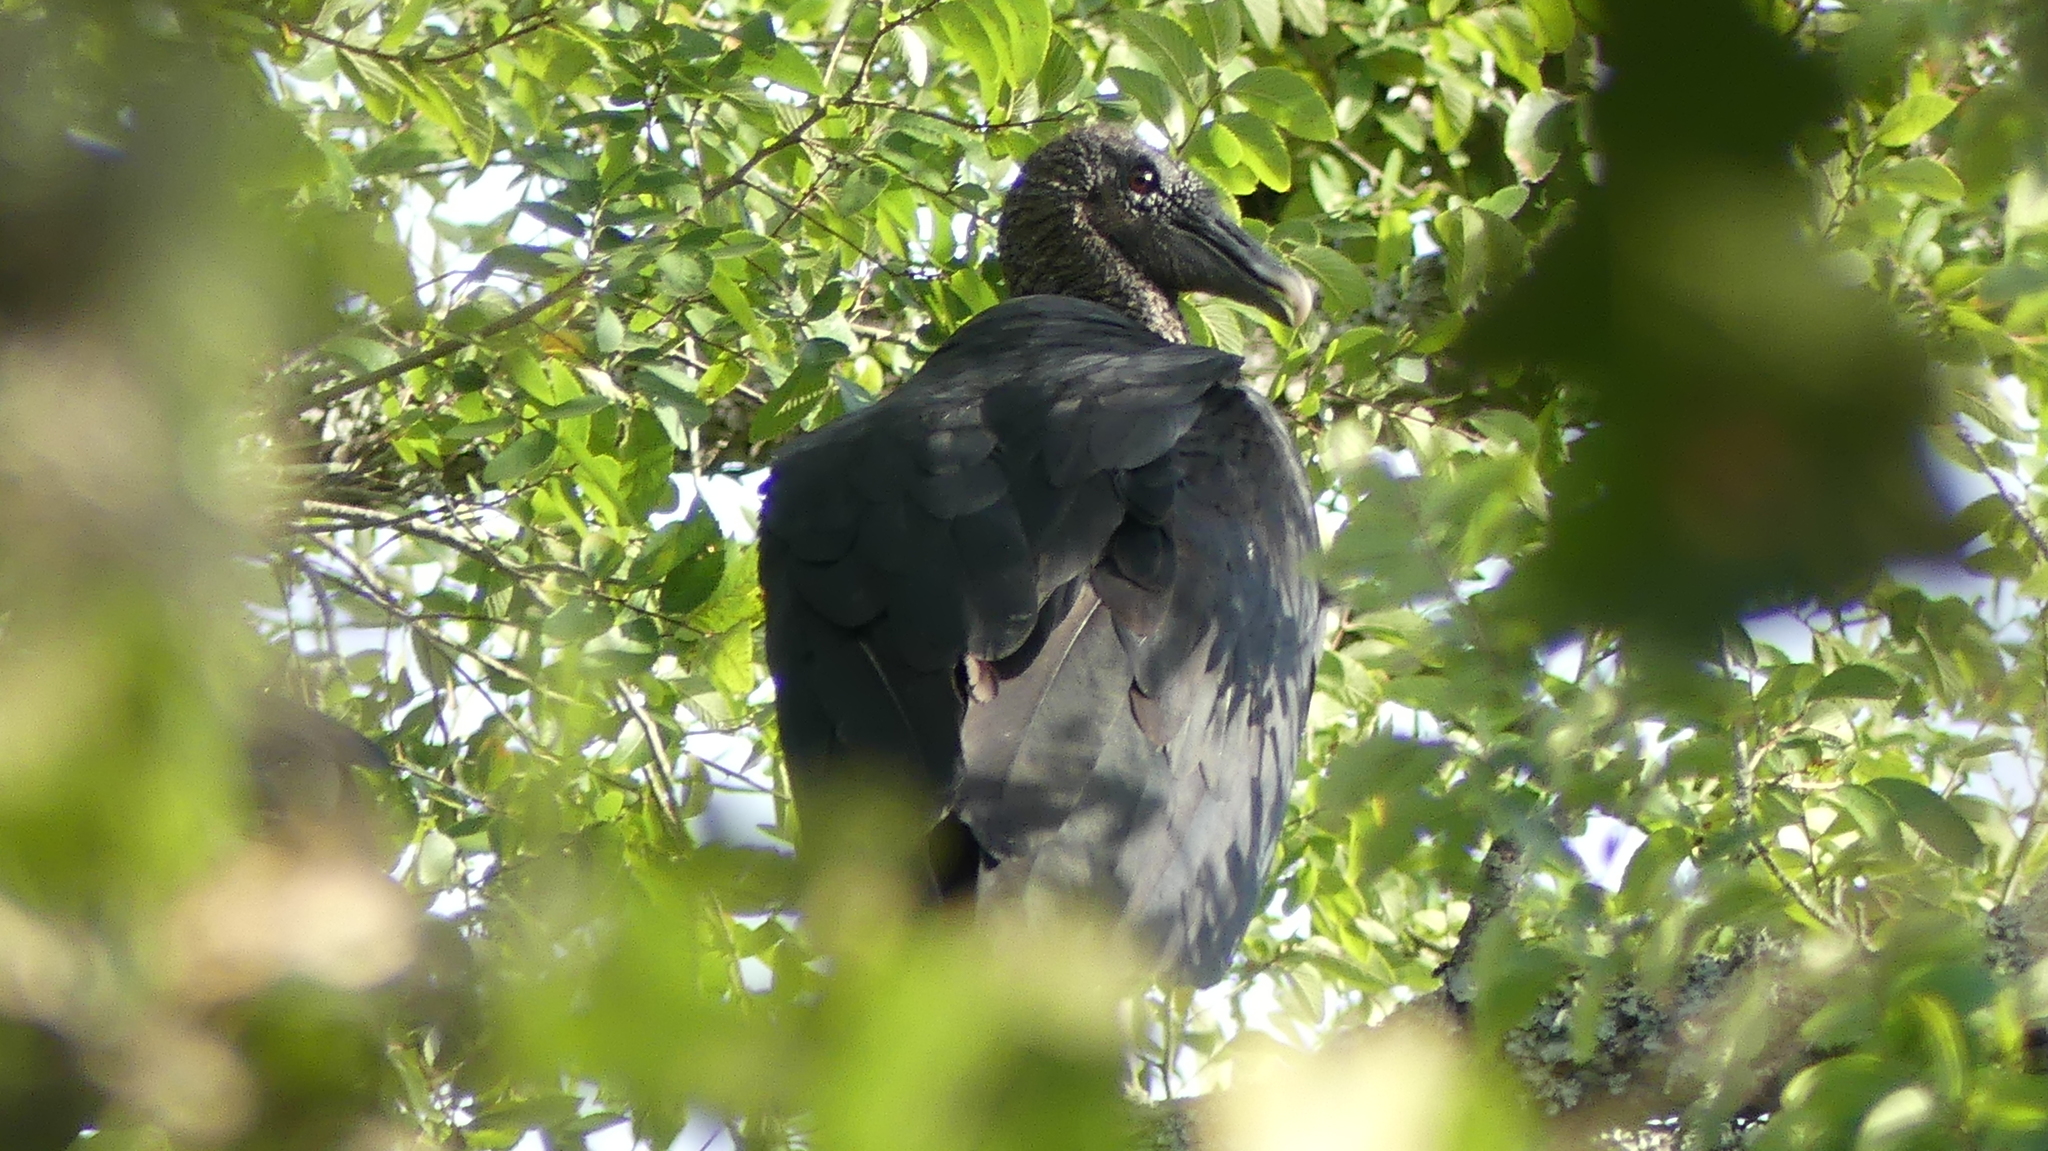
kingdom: Animalia
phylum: Chordata
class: Aves
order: Accipitriformes
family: Cathartidae
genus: Coragyps
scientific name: Coragyps atratus
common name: Black vulture
